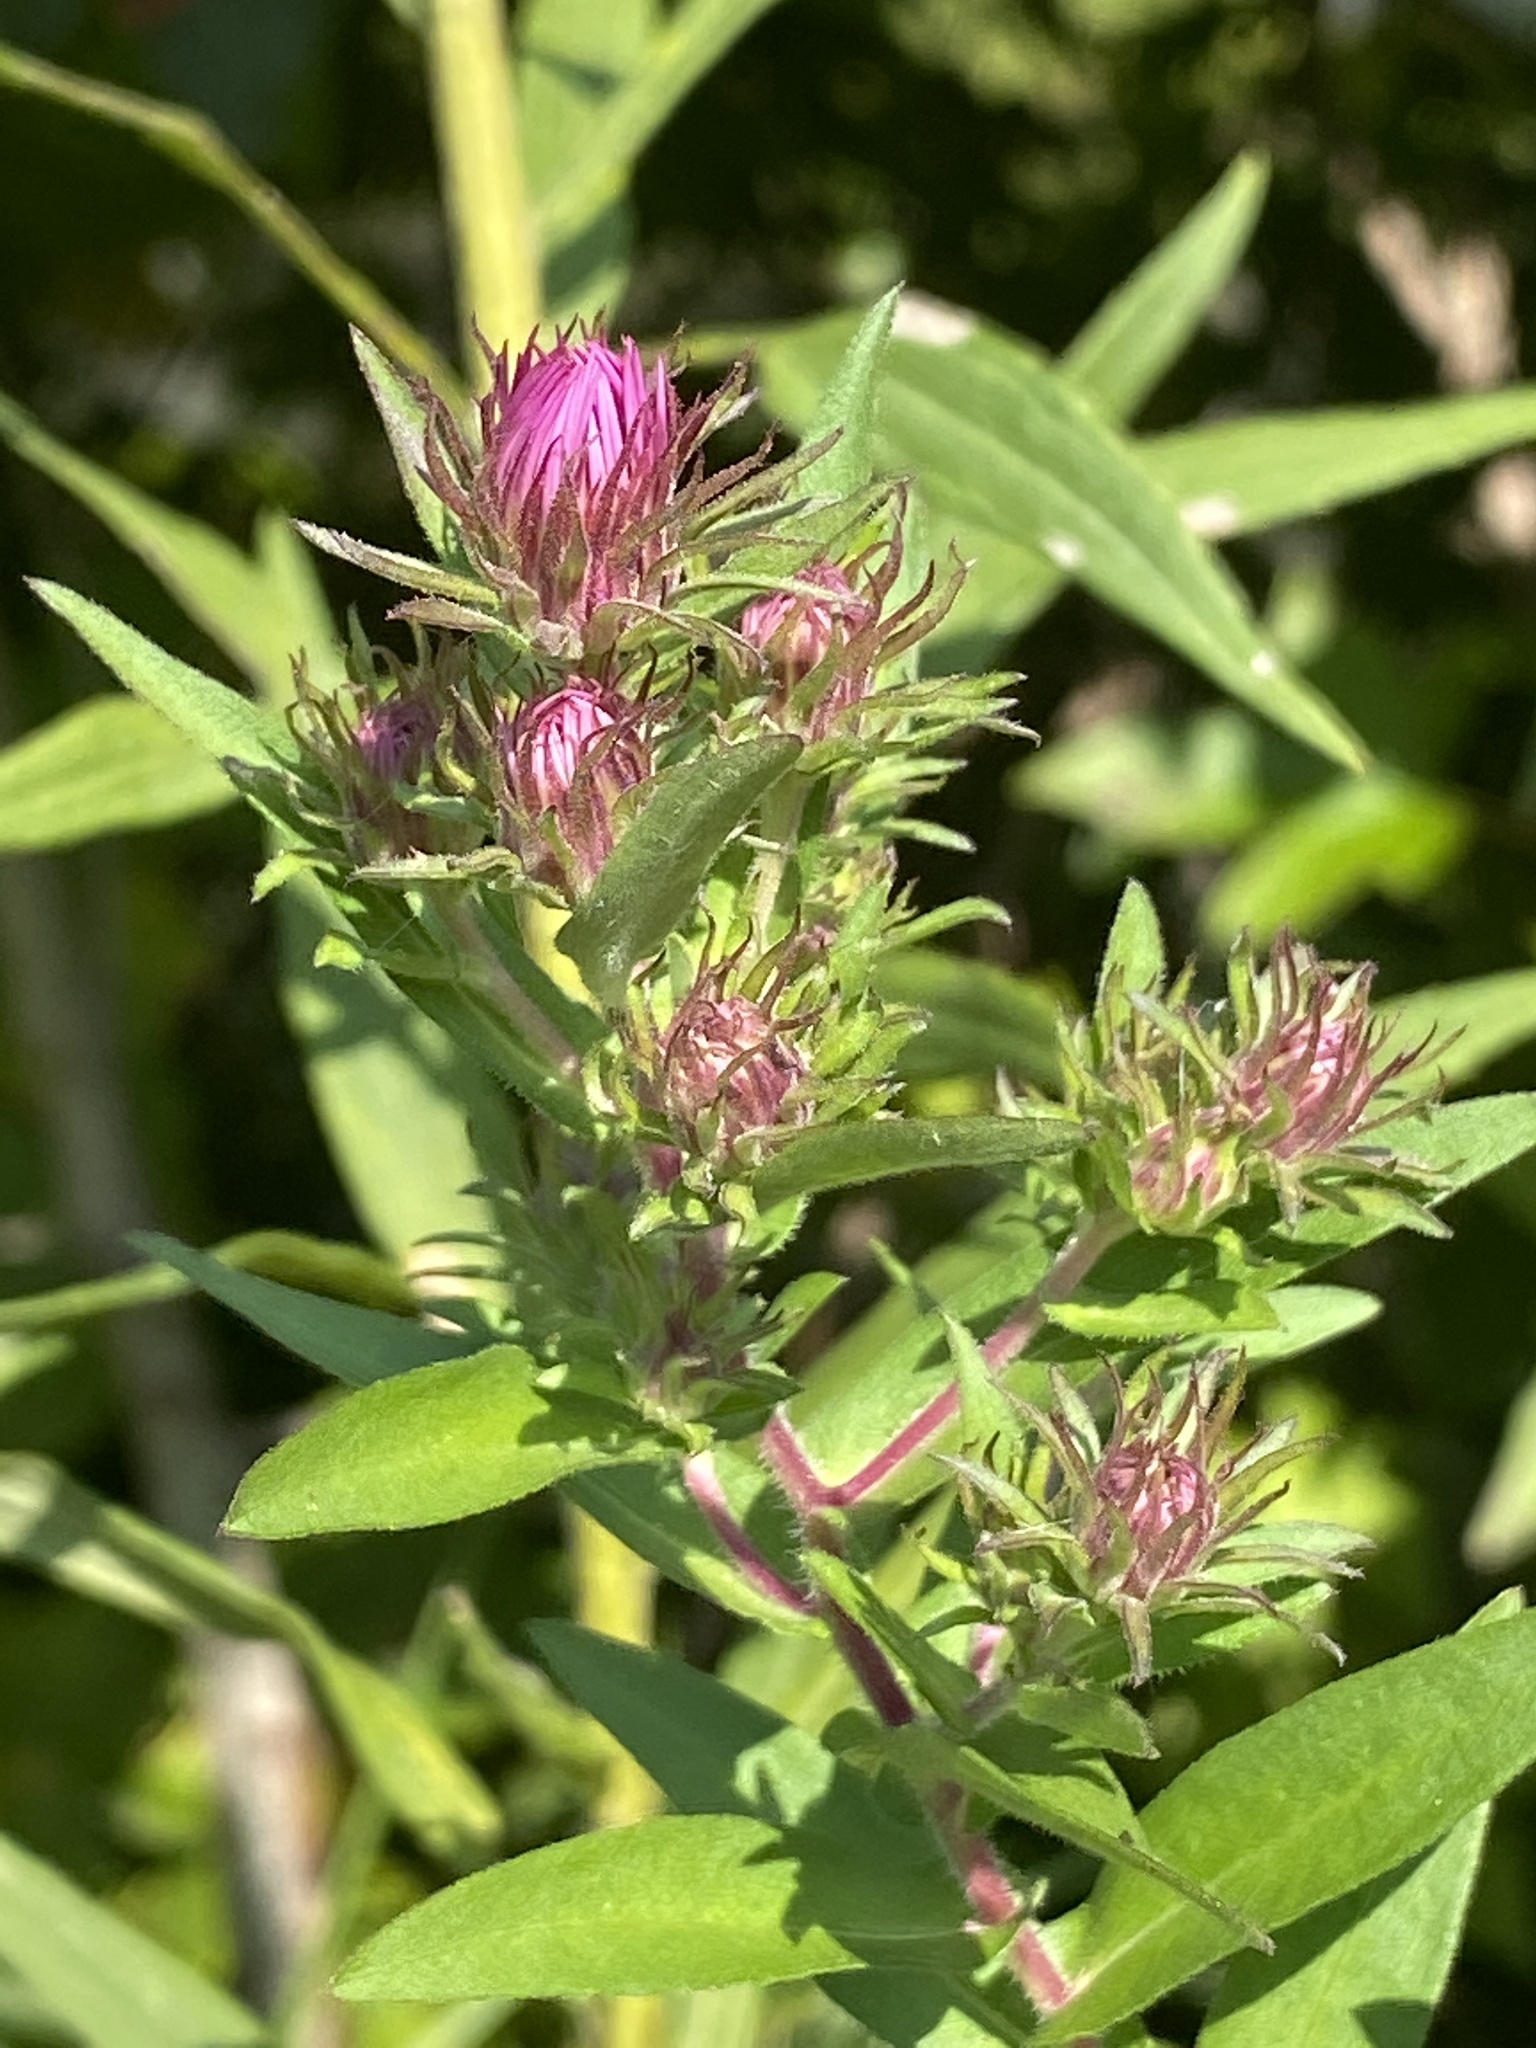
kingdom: Plantae
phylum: Tracheophyta
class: Magnoliopsida
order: Asterales
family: Asteraceae
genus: Symphyotrichum
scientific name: Symphyotrichum novae-angliae
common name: Michaelmas daisy
